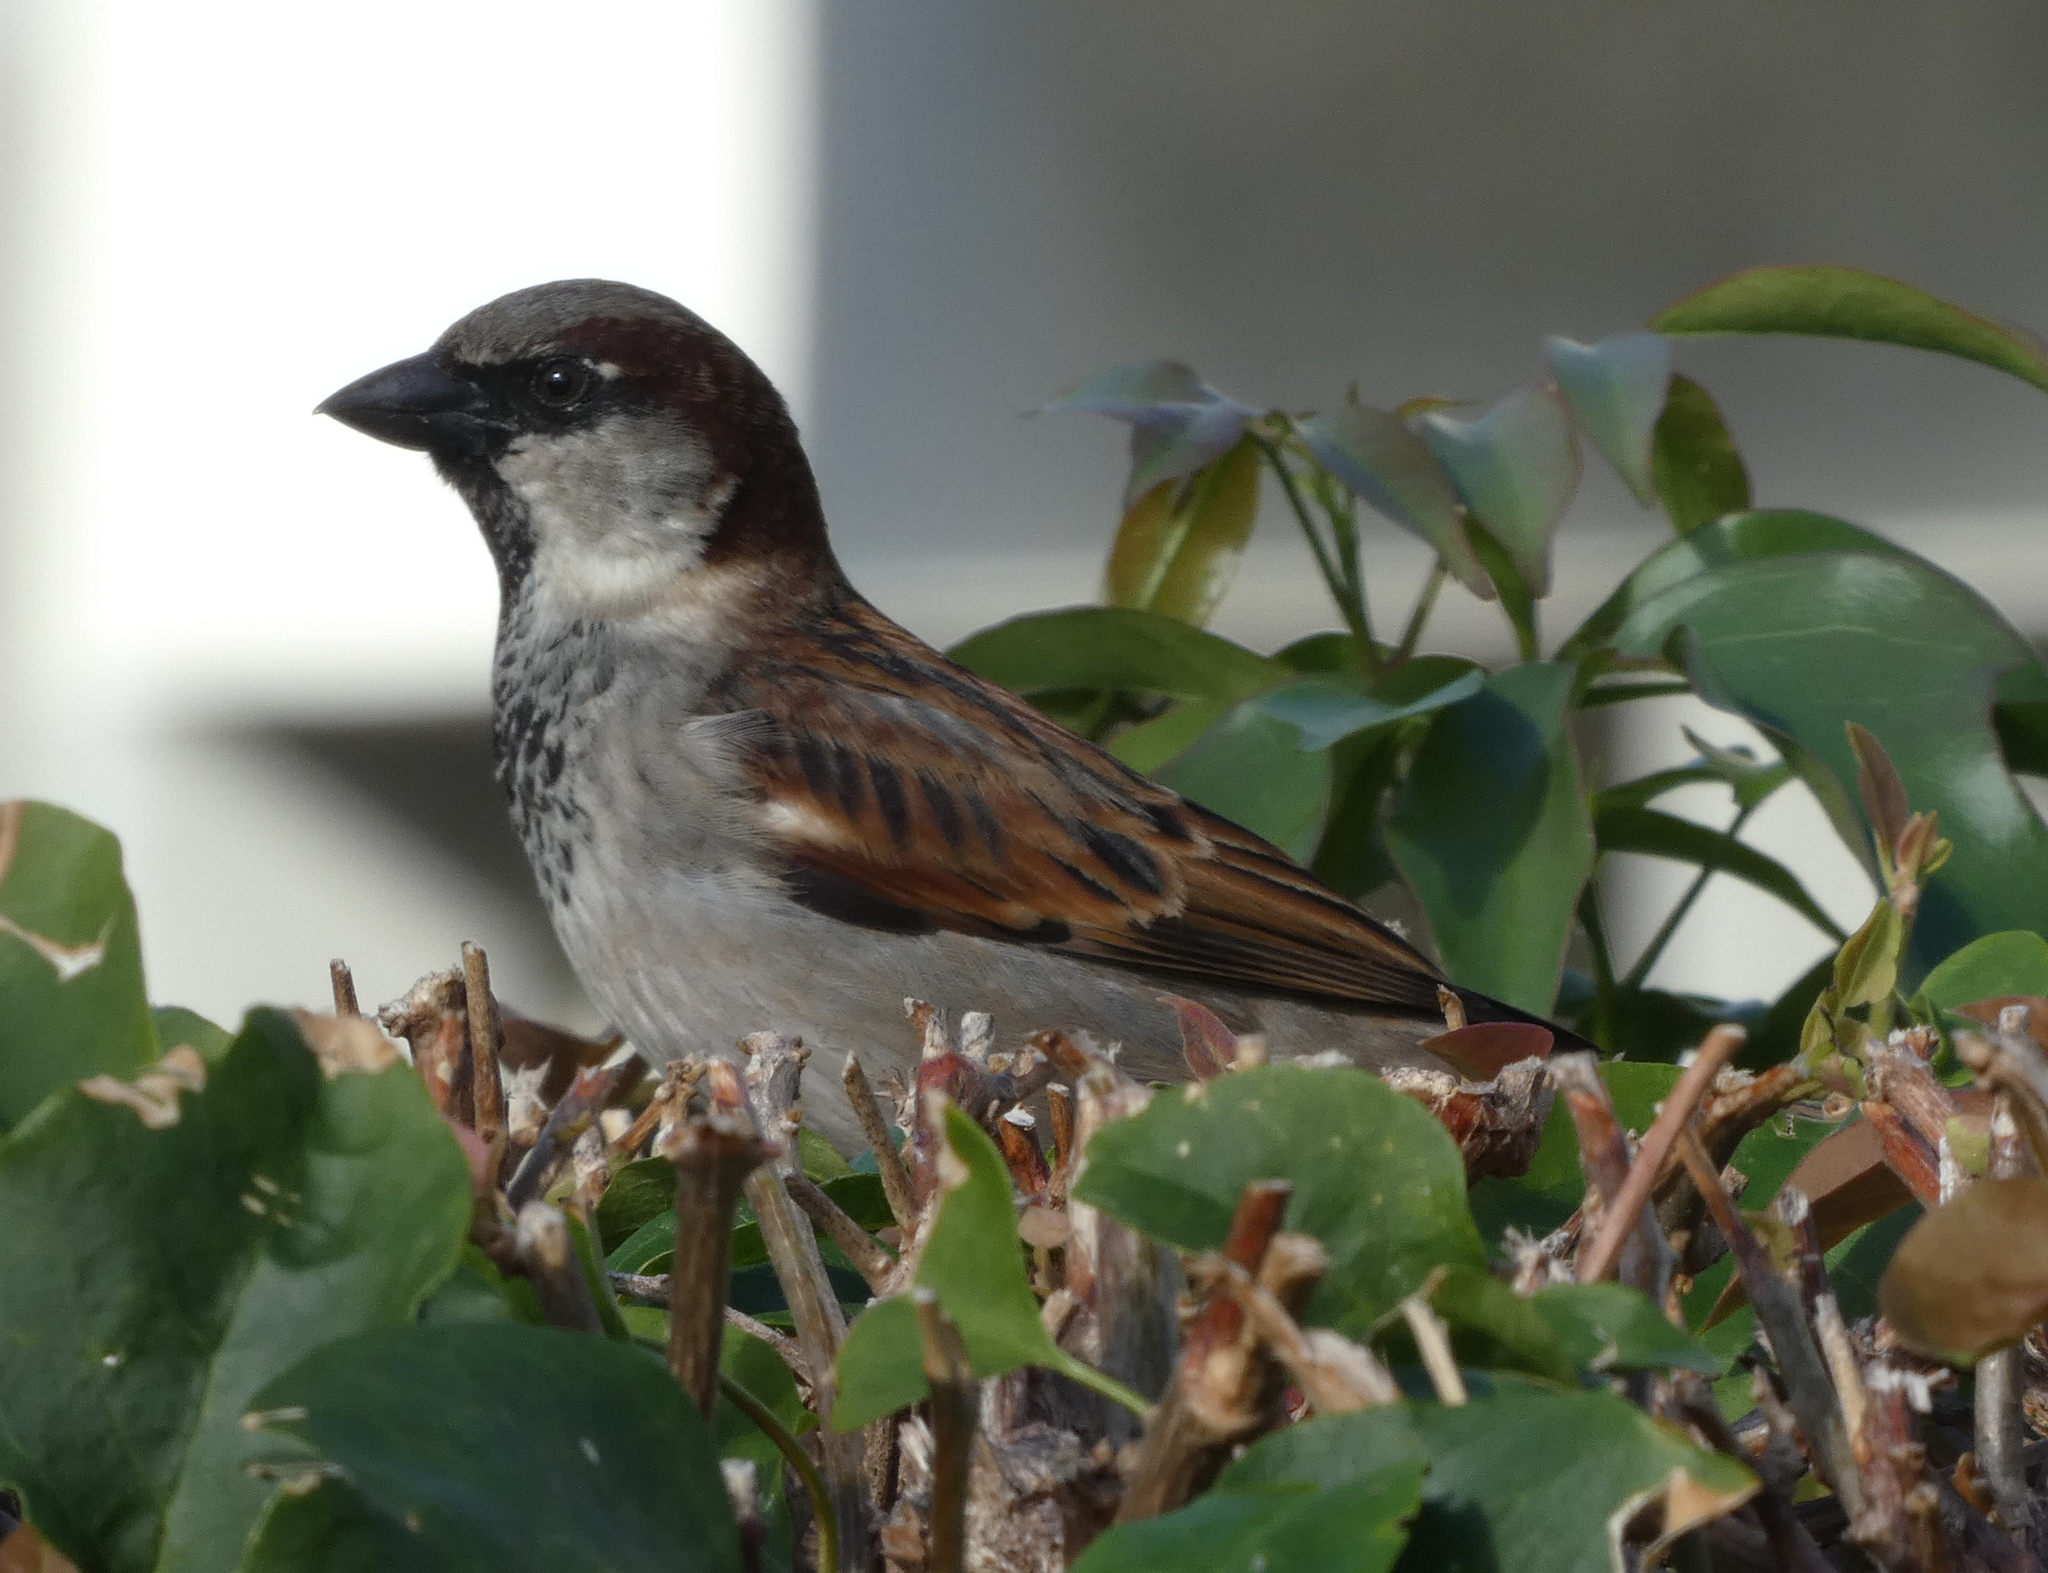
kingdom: Animalia
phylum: Chordata
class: Aves
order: Passeriformes
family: Passeridae
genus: Passer
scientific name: Passer domesticus
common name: House sparrow
